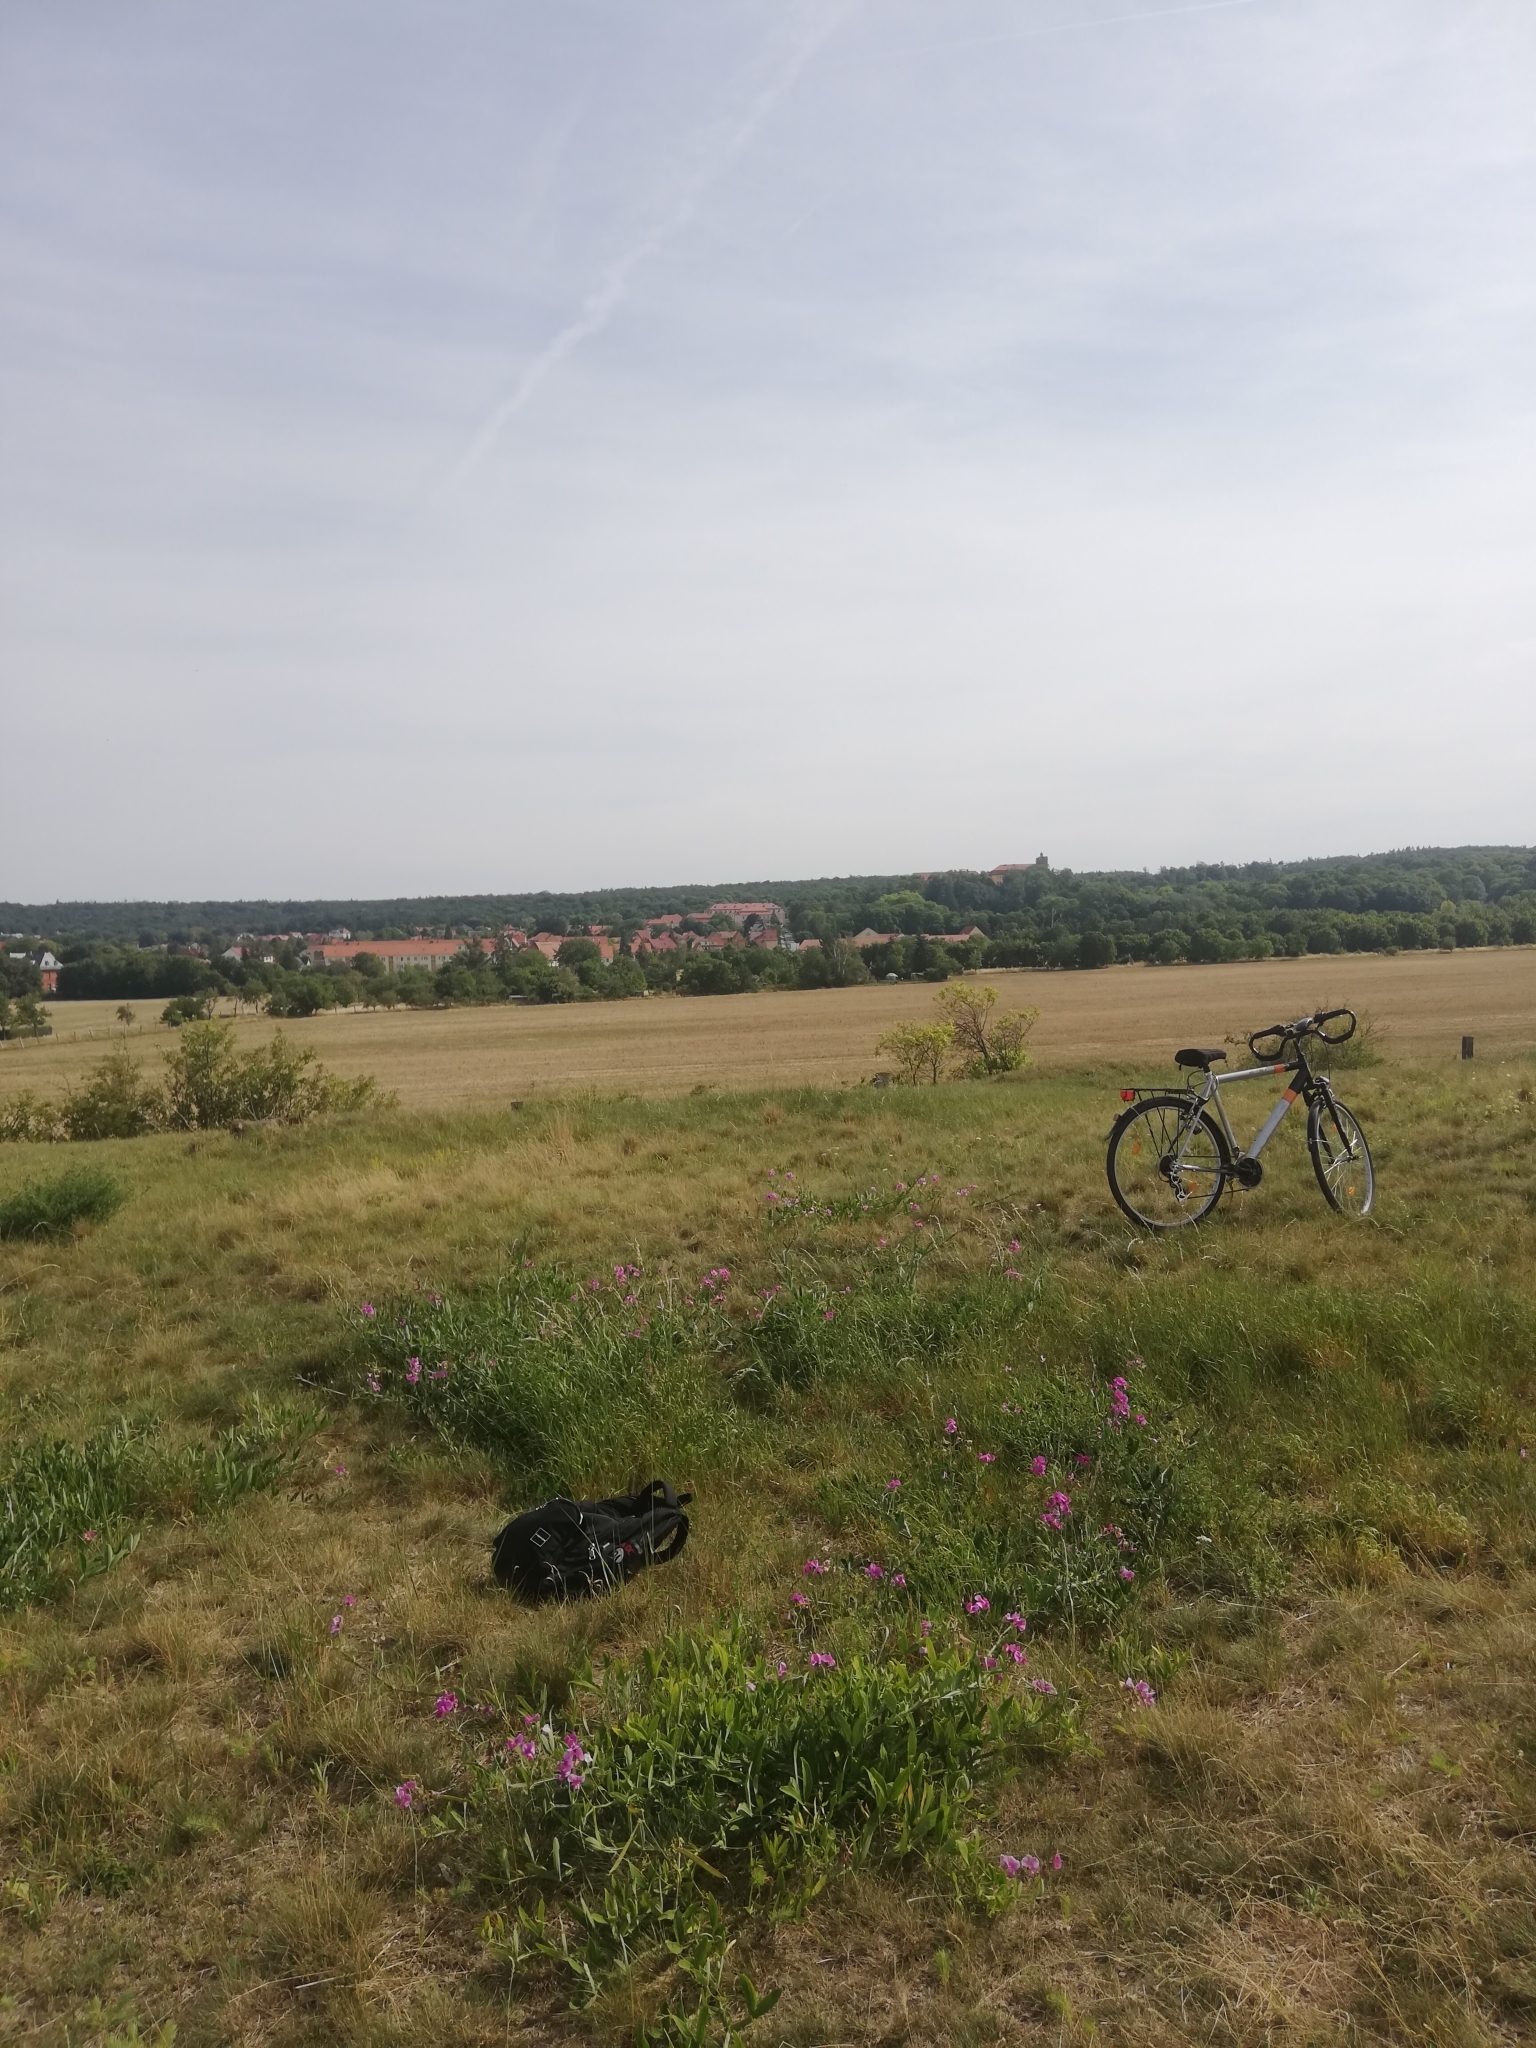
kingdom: Plantae
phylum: Tracheophyta
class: Magnoliopsida
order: Fabales
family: Fabaceae
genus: Lathyrus
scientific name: Lathyrus latifolius
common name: Perennial pea
